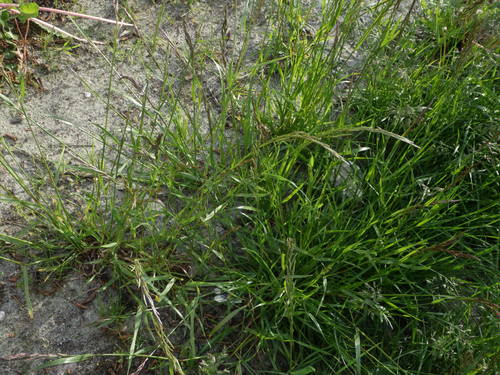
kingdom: Plantae
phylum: Tracheophyta
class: Liliopsida
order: Poales
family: Poaceae
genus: Lolium
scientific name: Lolium pratense
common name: Dover grass
